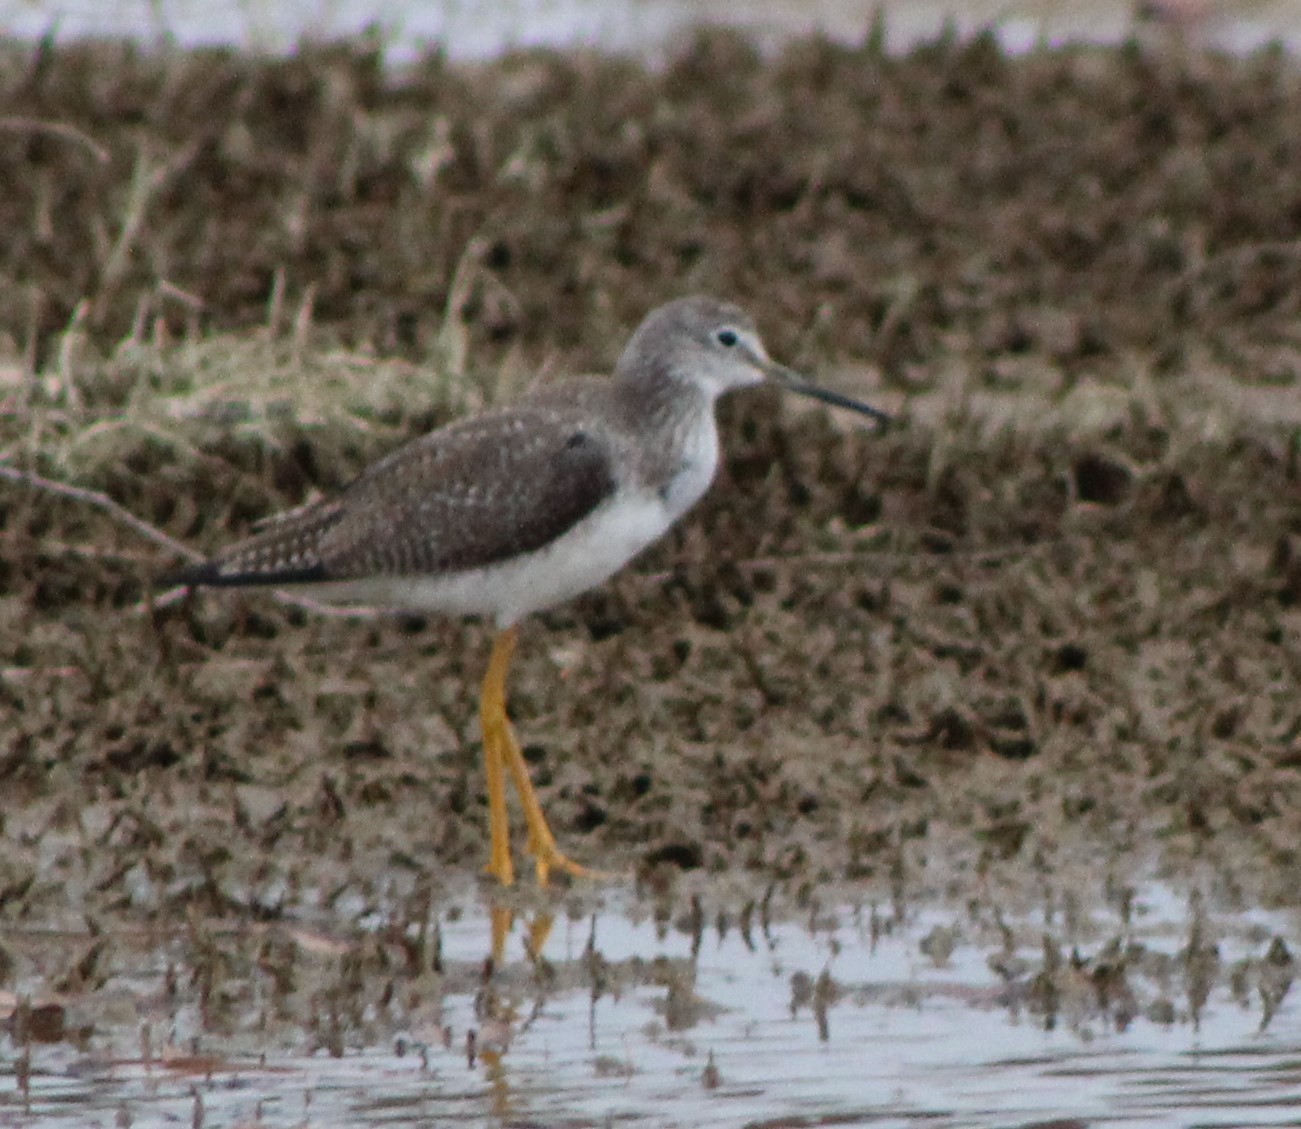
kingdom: Animalia
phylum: Chordata
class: Aves
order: Charadriiformes
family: Scolopacidae
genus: Tringa
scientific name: Tringa melanoleuca
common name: Greater yellowlegs
